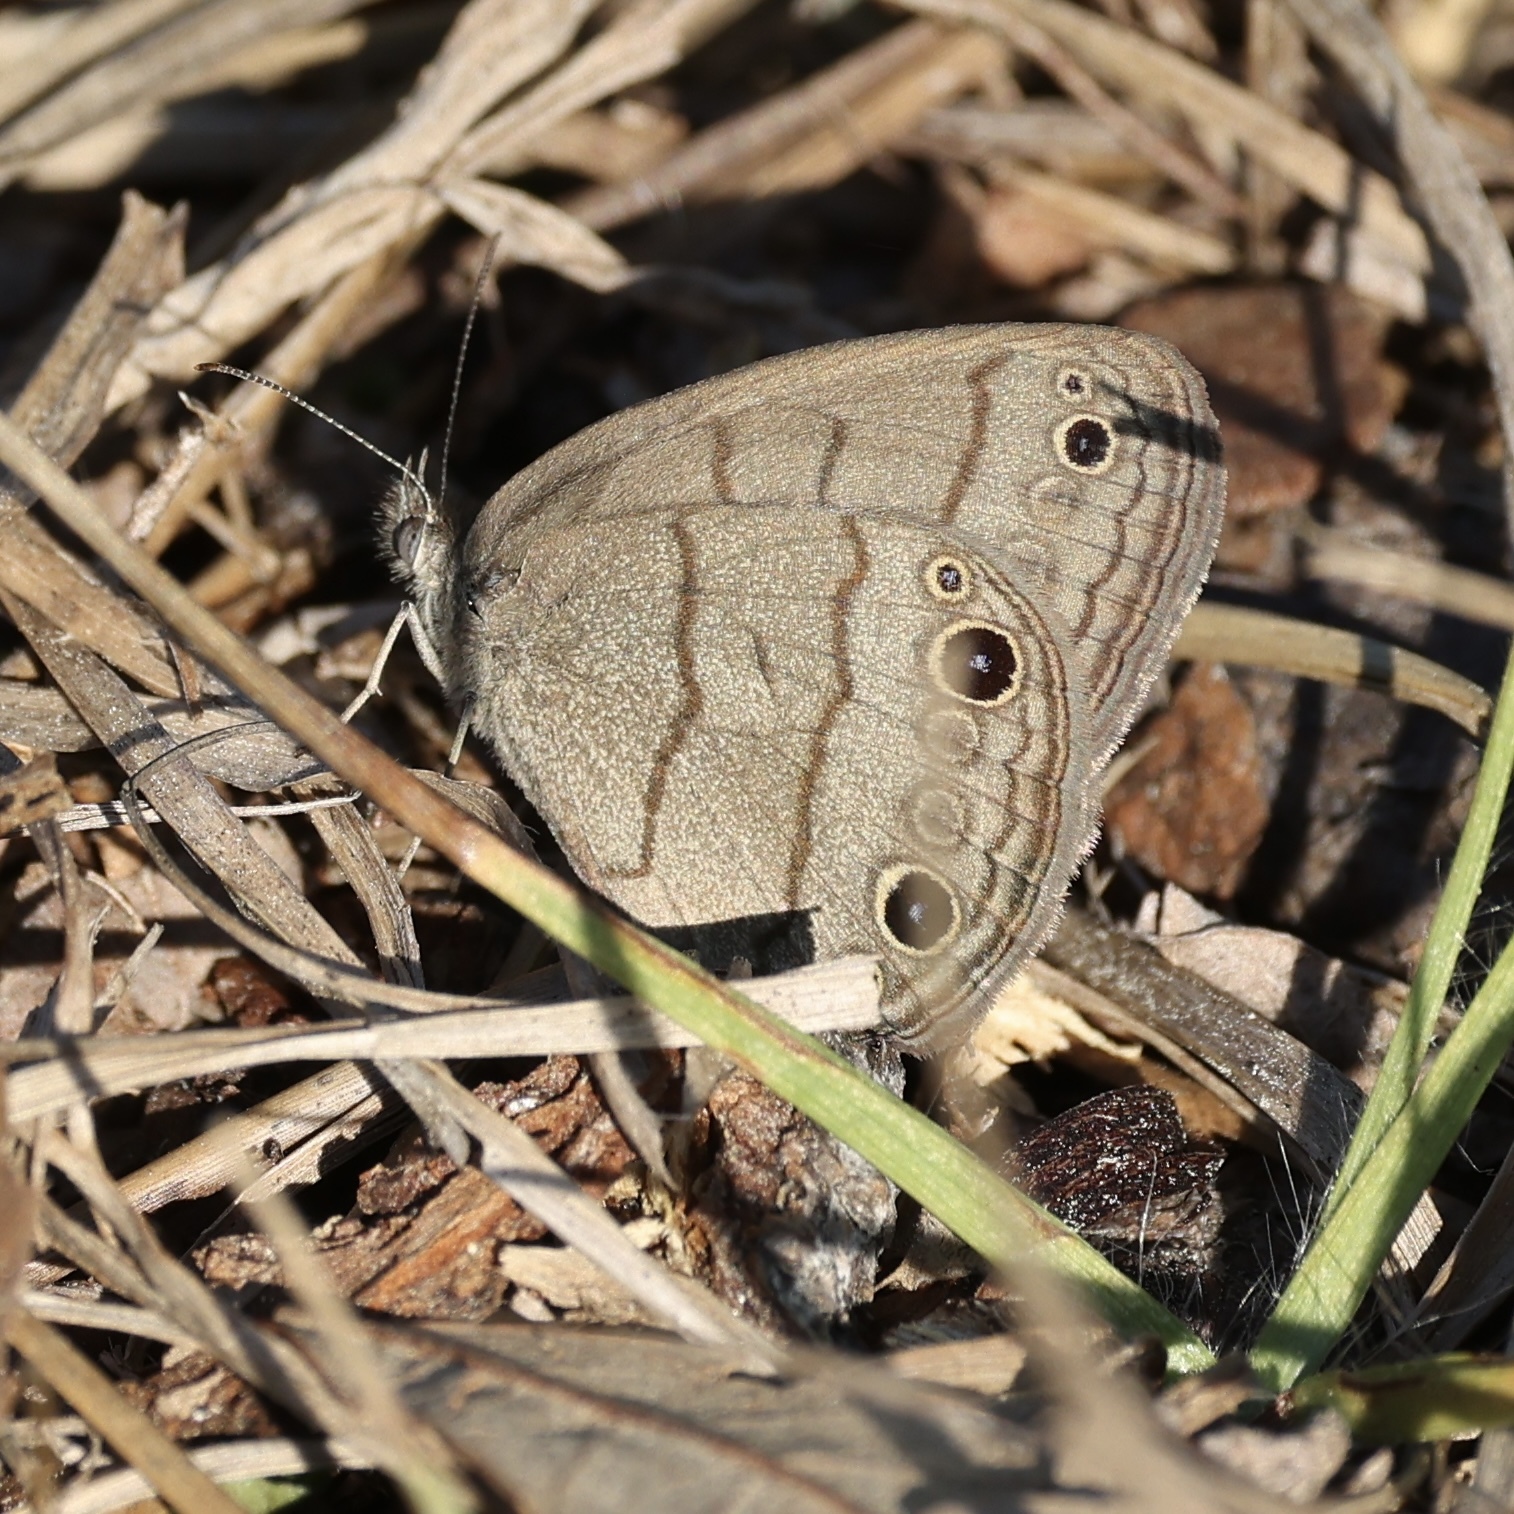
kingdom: Animalia
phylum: Arthropoda
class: Insecta
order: Lepidoptera
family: Nymphalidae
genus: Hermeuptychia
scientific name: Hermeuptychia hermes
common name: Hermes satyr
